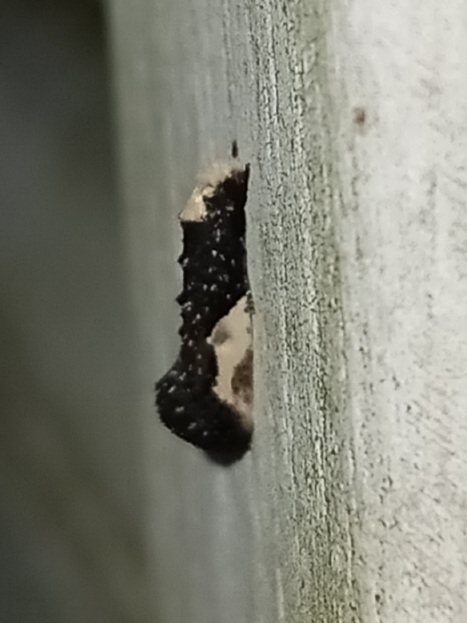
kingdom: Animalia
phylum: Arthropoda
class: Insecta
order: Lepidoptera
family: Tineidae
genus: Monopis
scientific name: Monopis longella
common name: Pavlovski's monopis moth
